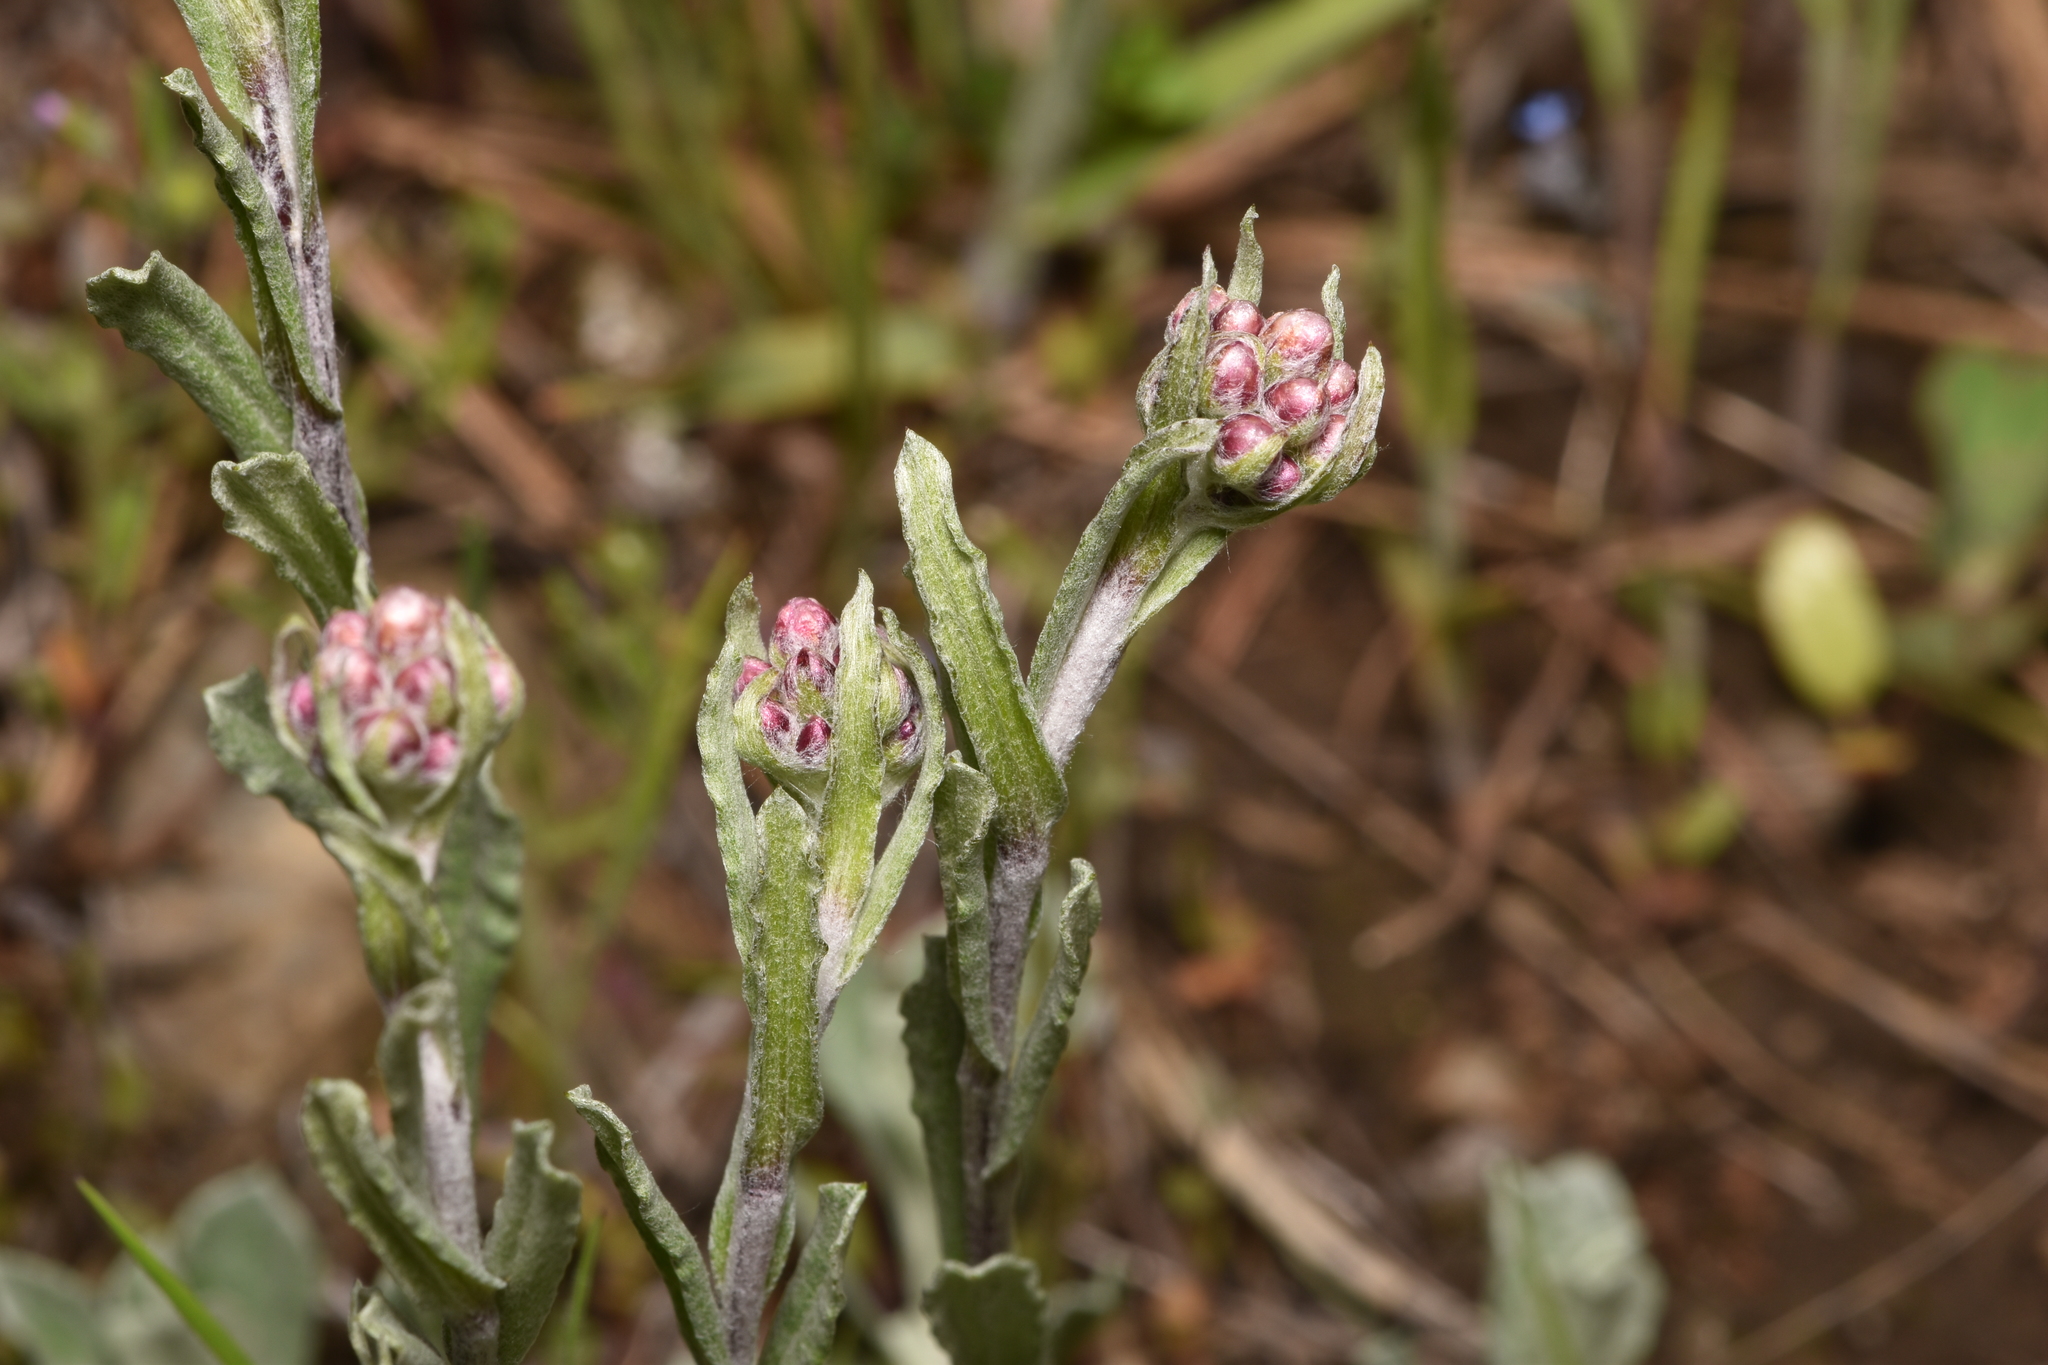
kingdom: Plantae
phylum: Tracheophyta
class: Magnoliopsida
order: Asterales
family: Asteraceae
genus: Antennaria
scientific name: Antennaria rosea
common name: Rosy pussytoes
